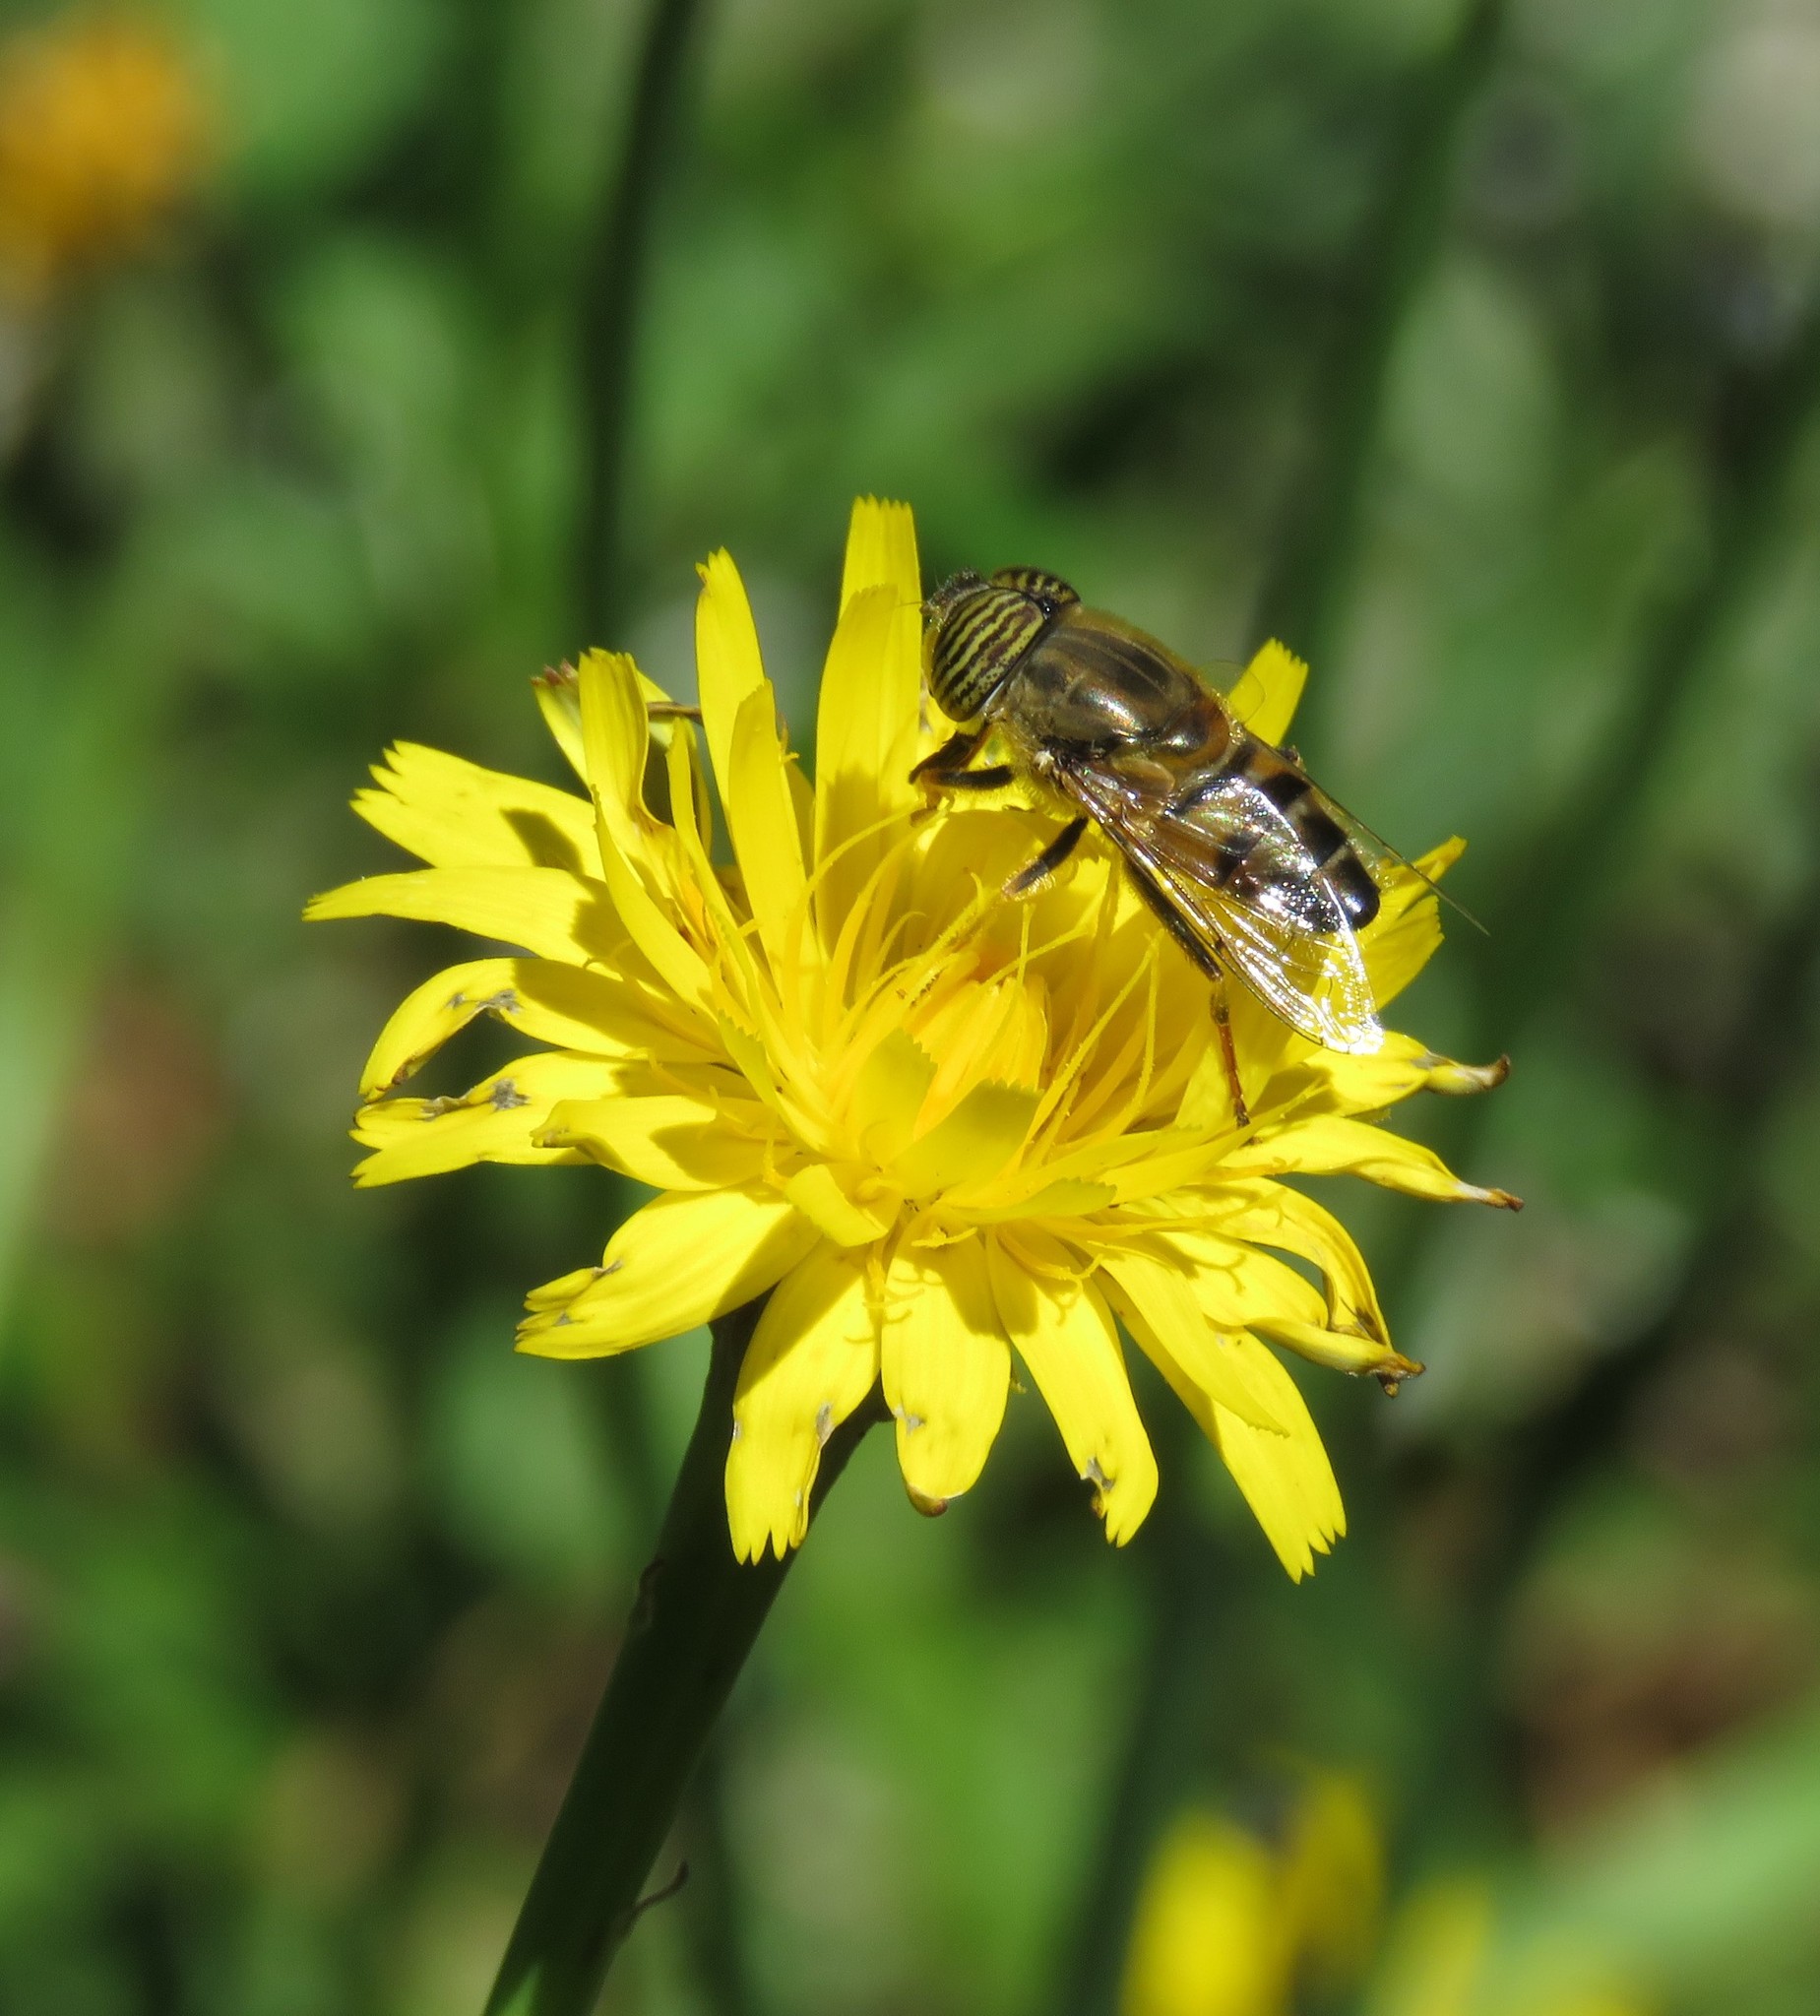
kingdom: Animalia
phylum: Arthropoda
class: Insecta
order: Diptera
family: Syrphidae
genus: Eristalinus
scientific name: Eristalinus taeniops
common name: Syrphid fly
